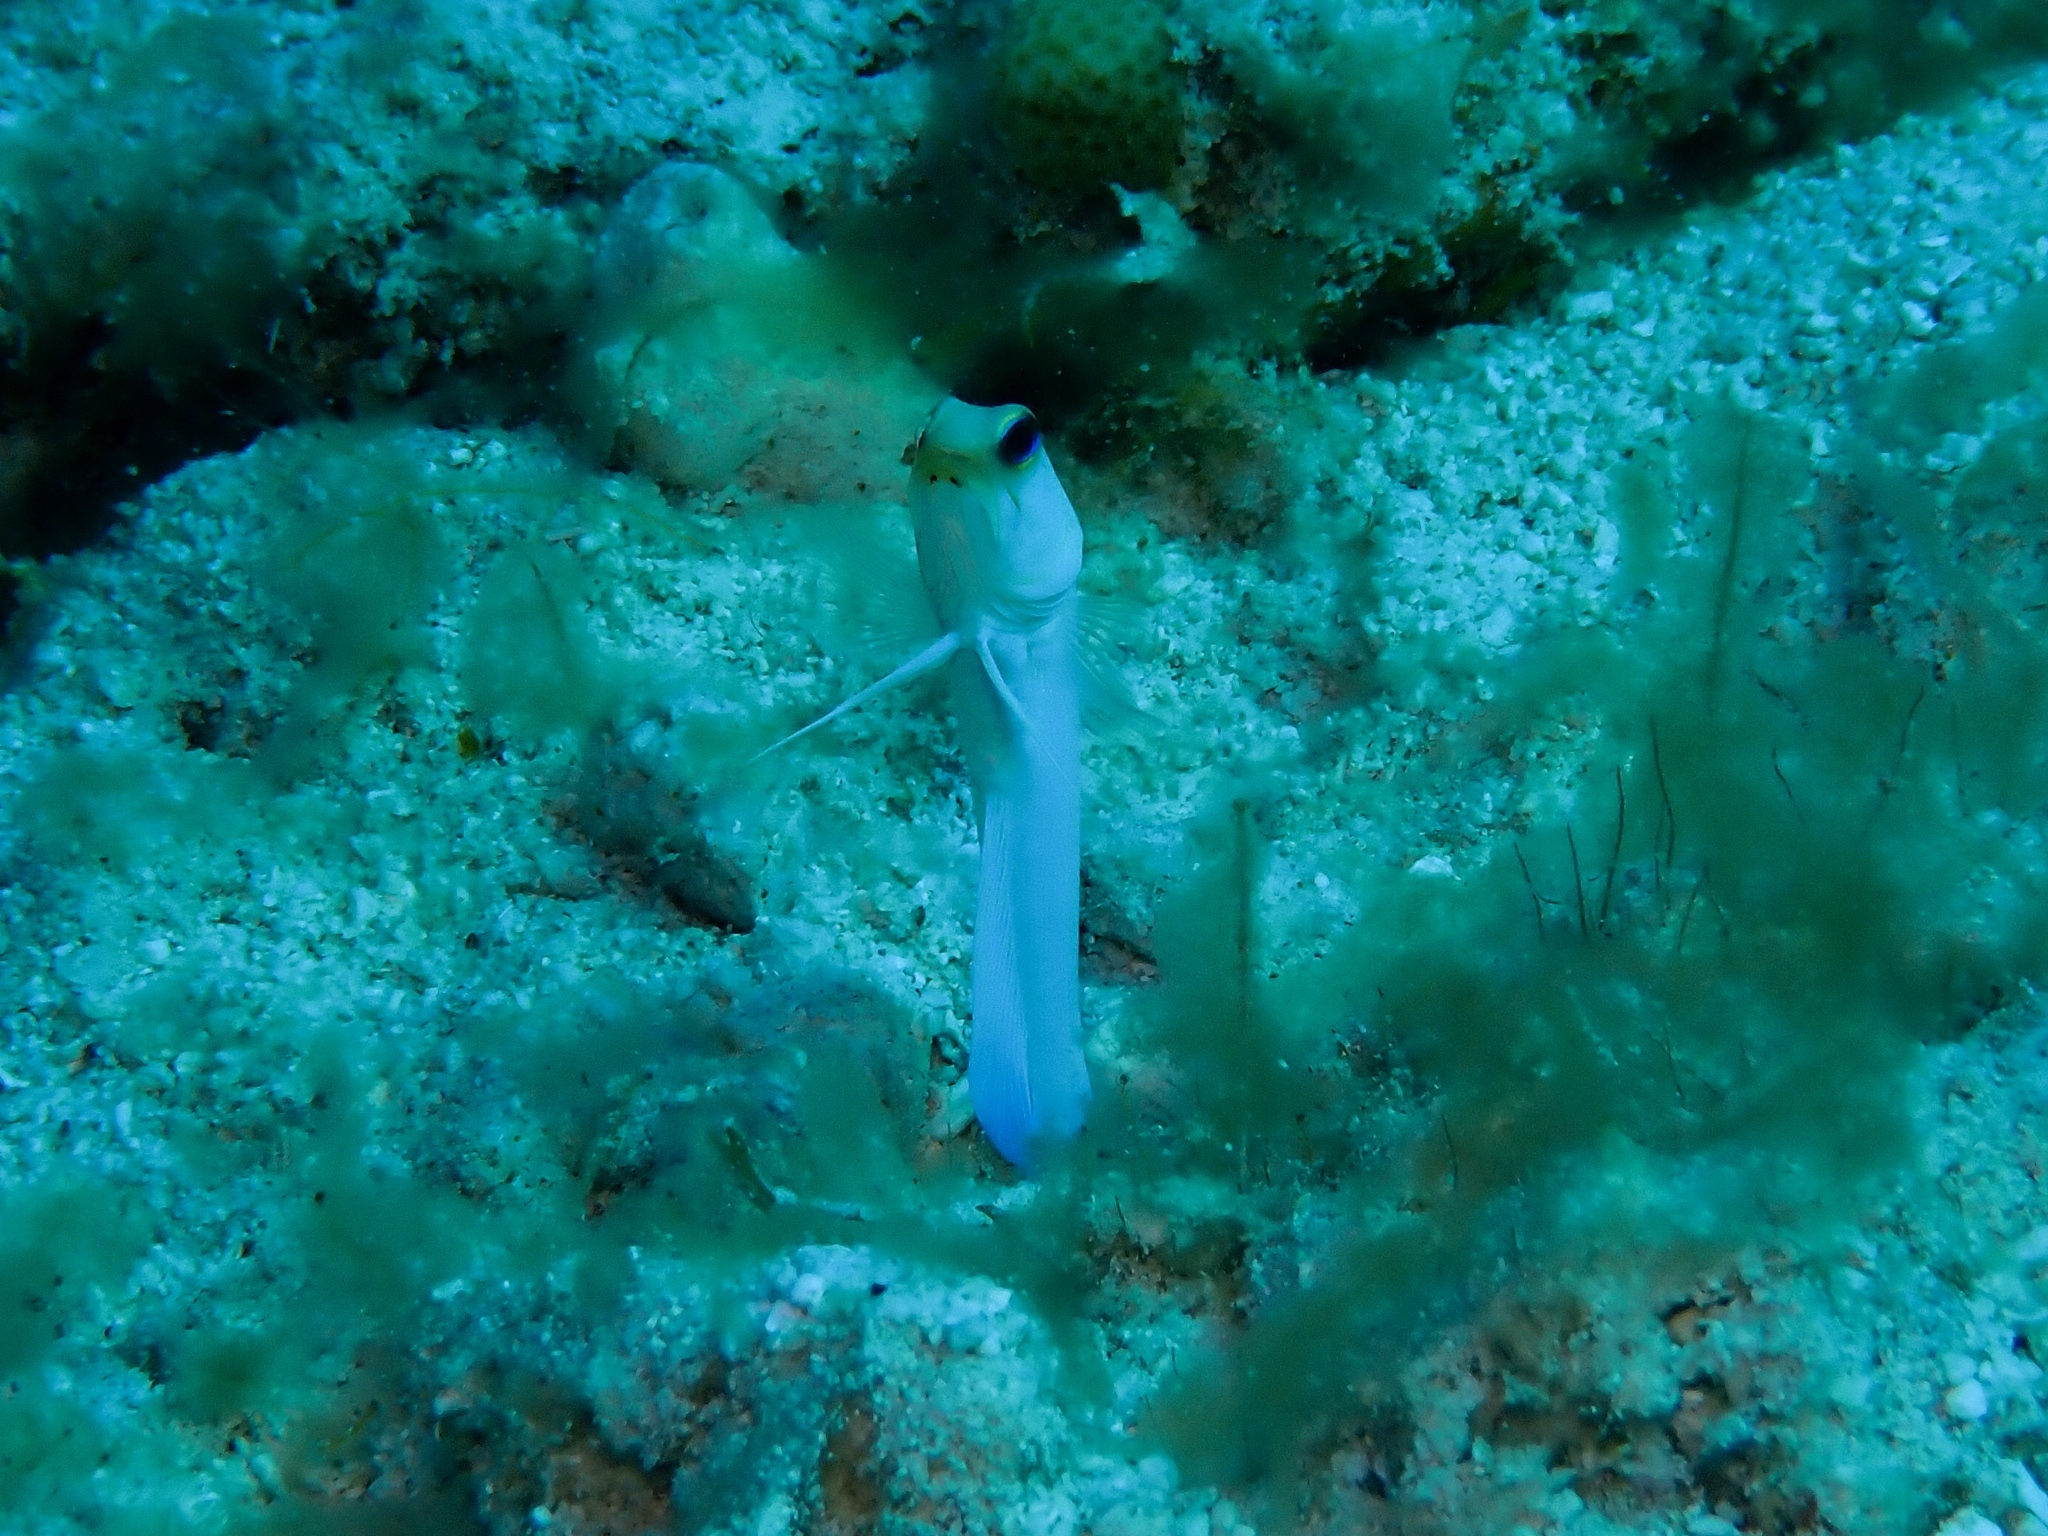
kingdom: Animalia
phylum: Chordata
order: Perciformes
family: Opistognathidae
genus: Opistognathus
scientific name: Opistognathus aurifrons
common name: Yellowhead jawfish
